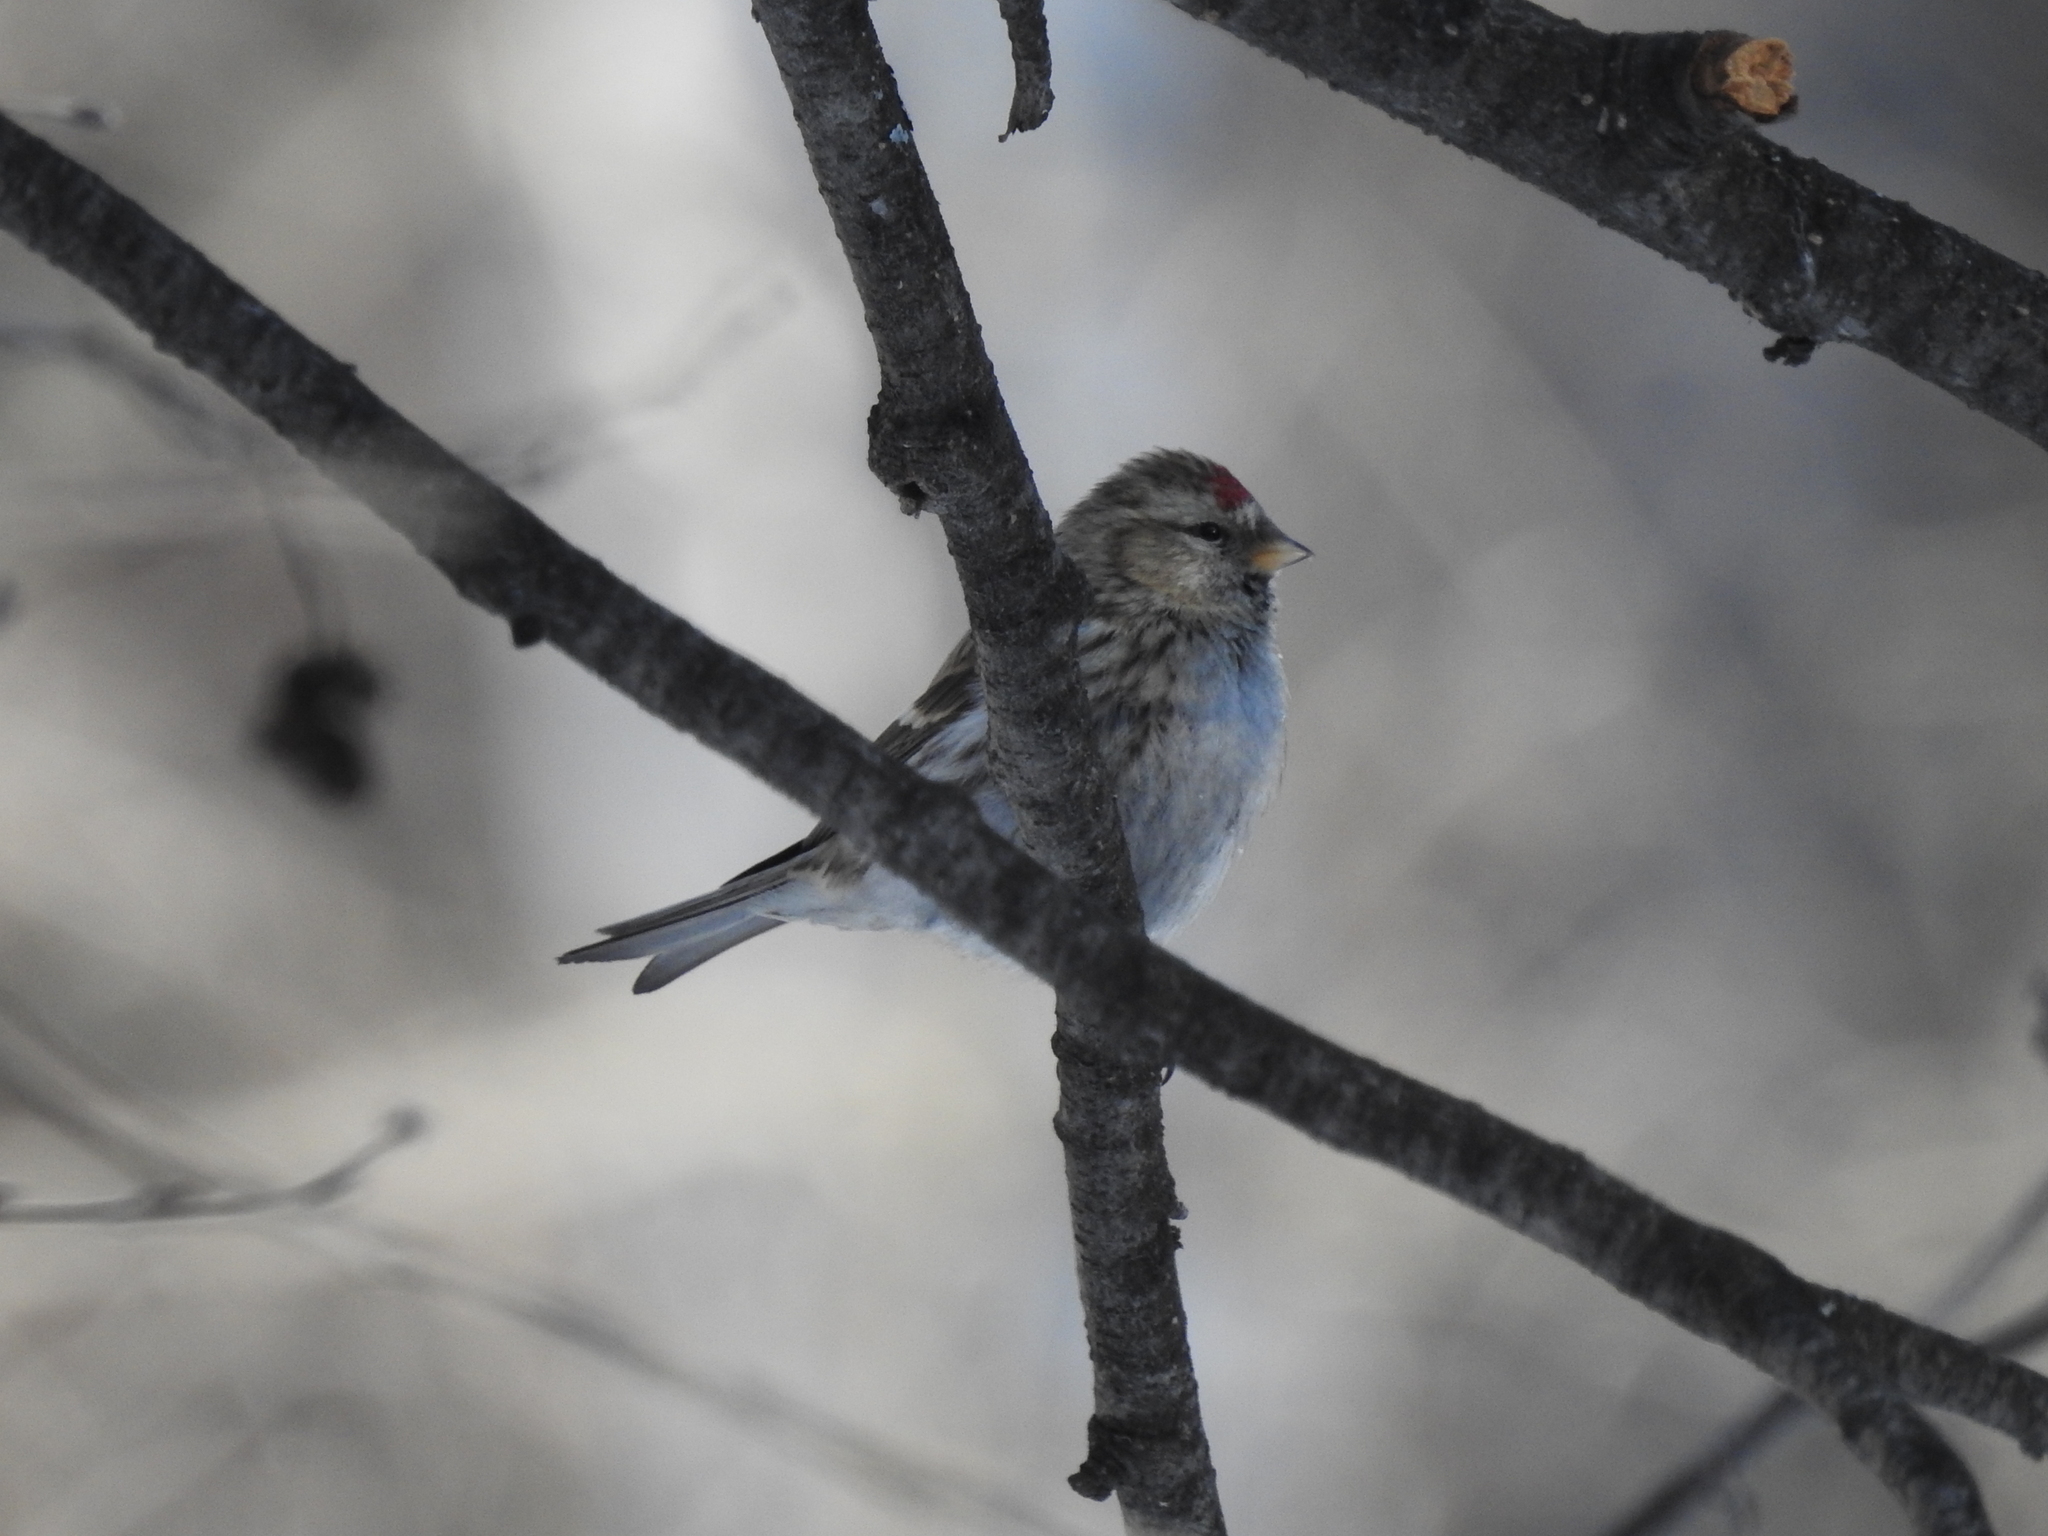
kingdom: Animalia
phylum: Chordata
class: Aves
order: Passeriformes
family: Fringillidae
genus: Acanthis
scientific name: Acanthis flammea
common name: Common redpoll
